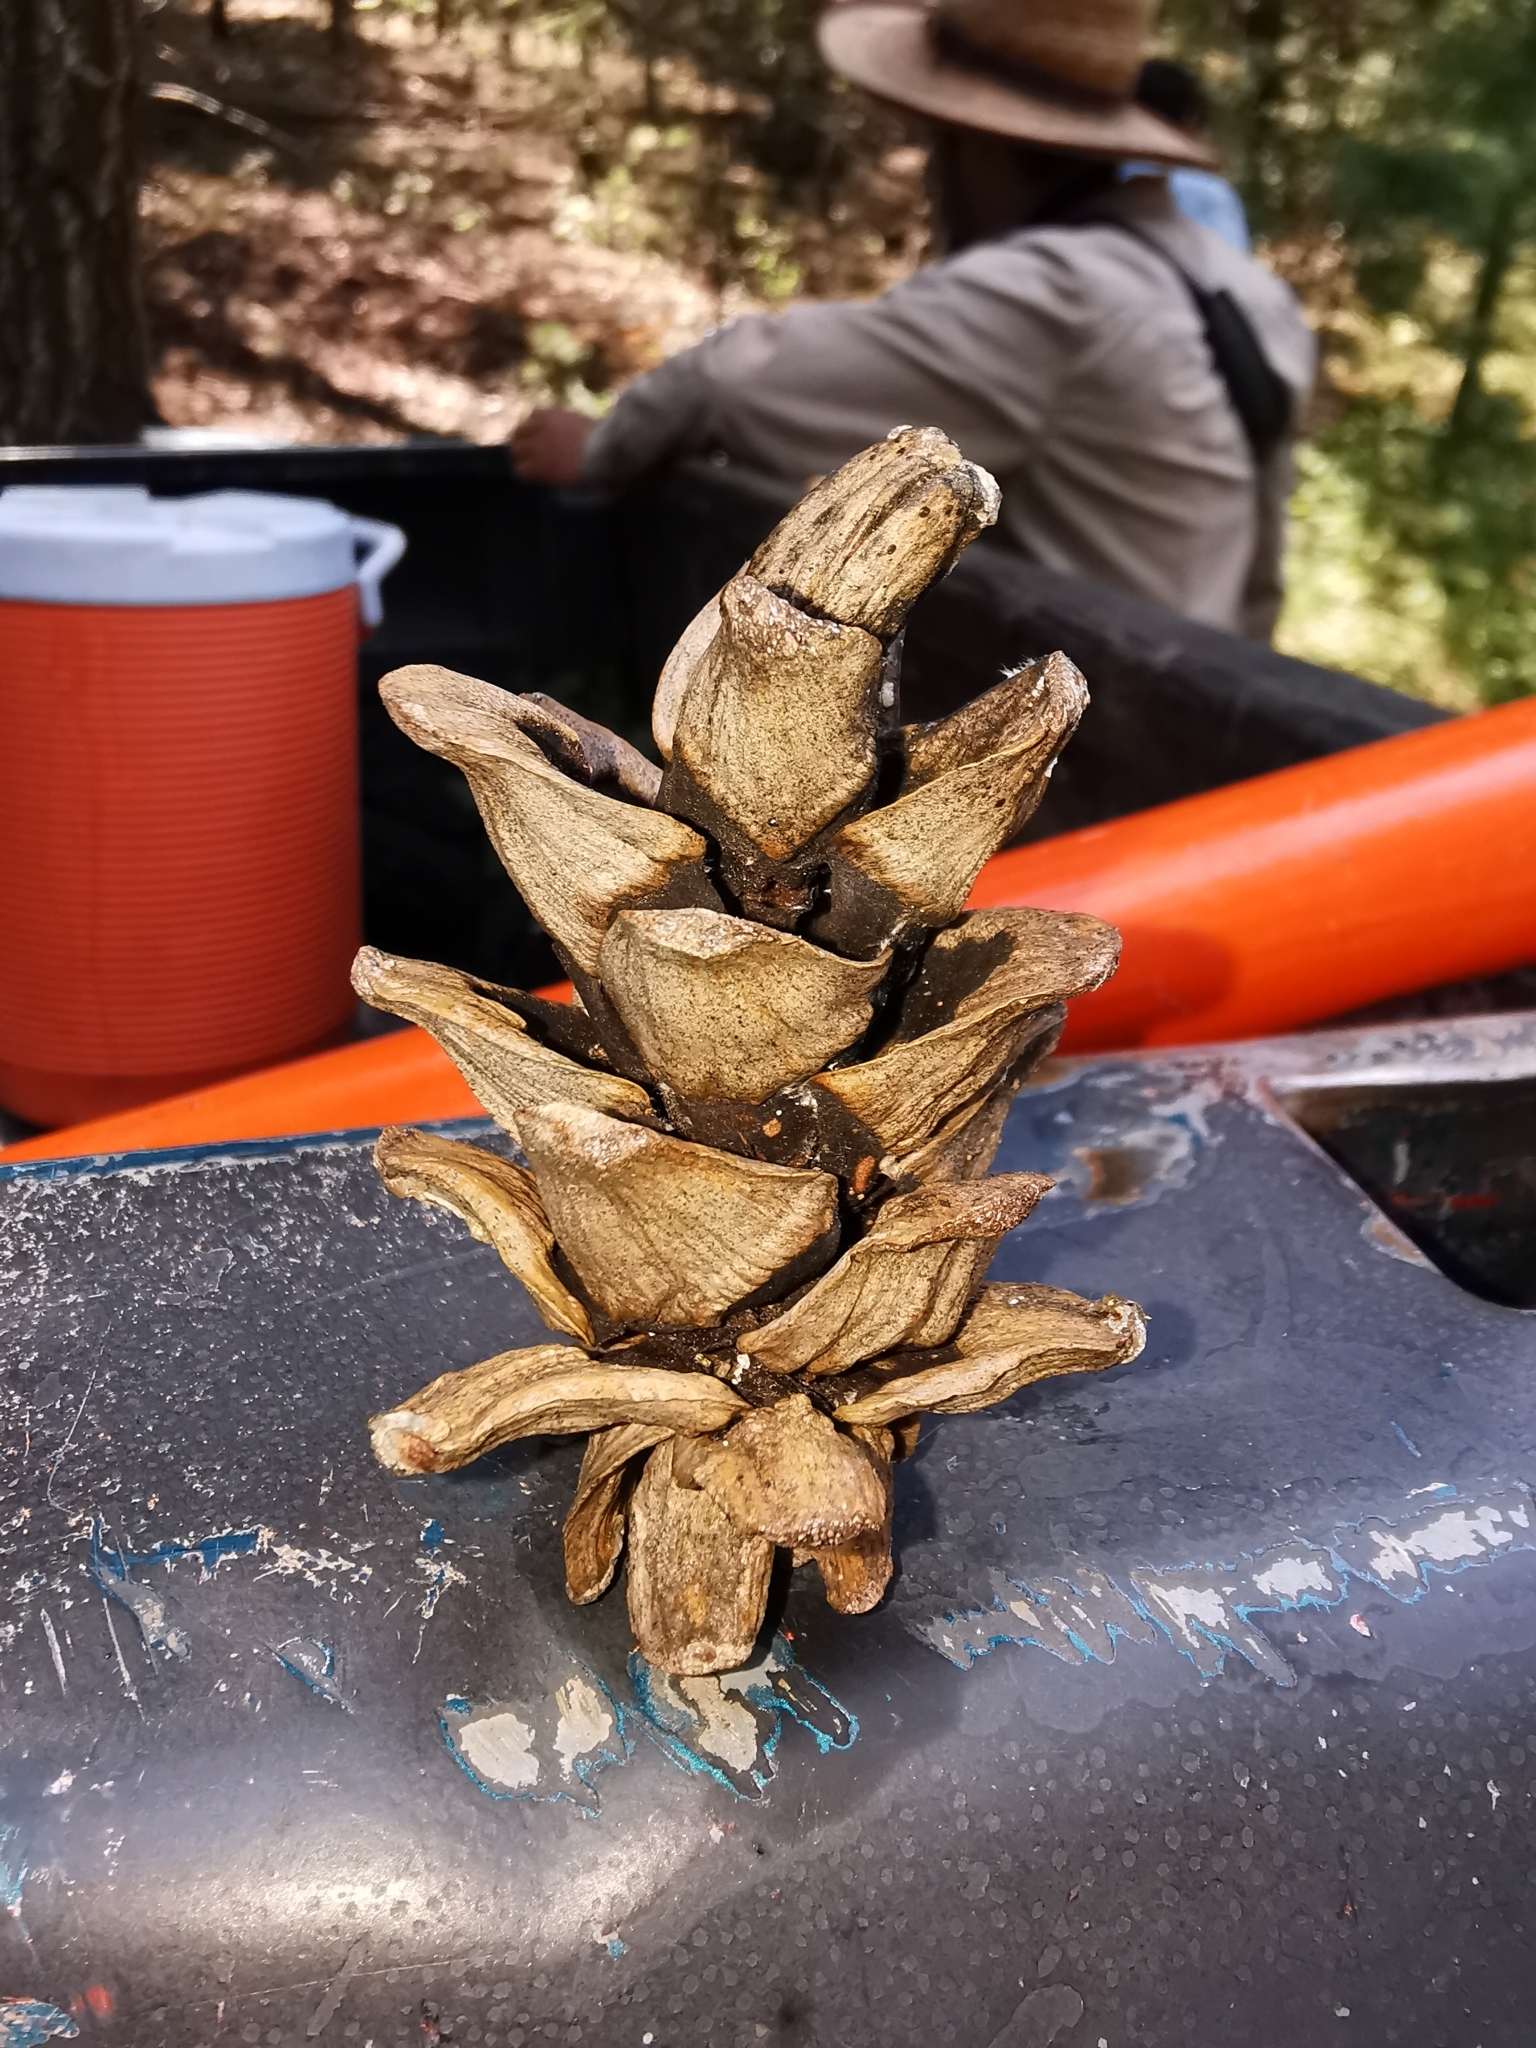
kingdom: Plantae
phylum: Tracheophyta
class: Pinopsida
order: Pinales
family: Pinaceae
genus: Pinus
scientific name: Pinus strobiformis
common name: Southwestern white pine
